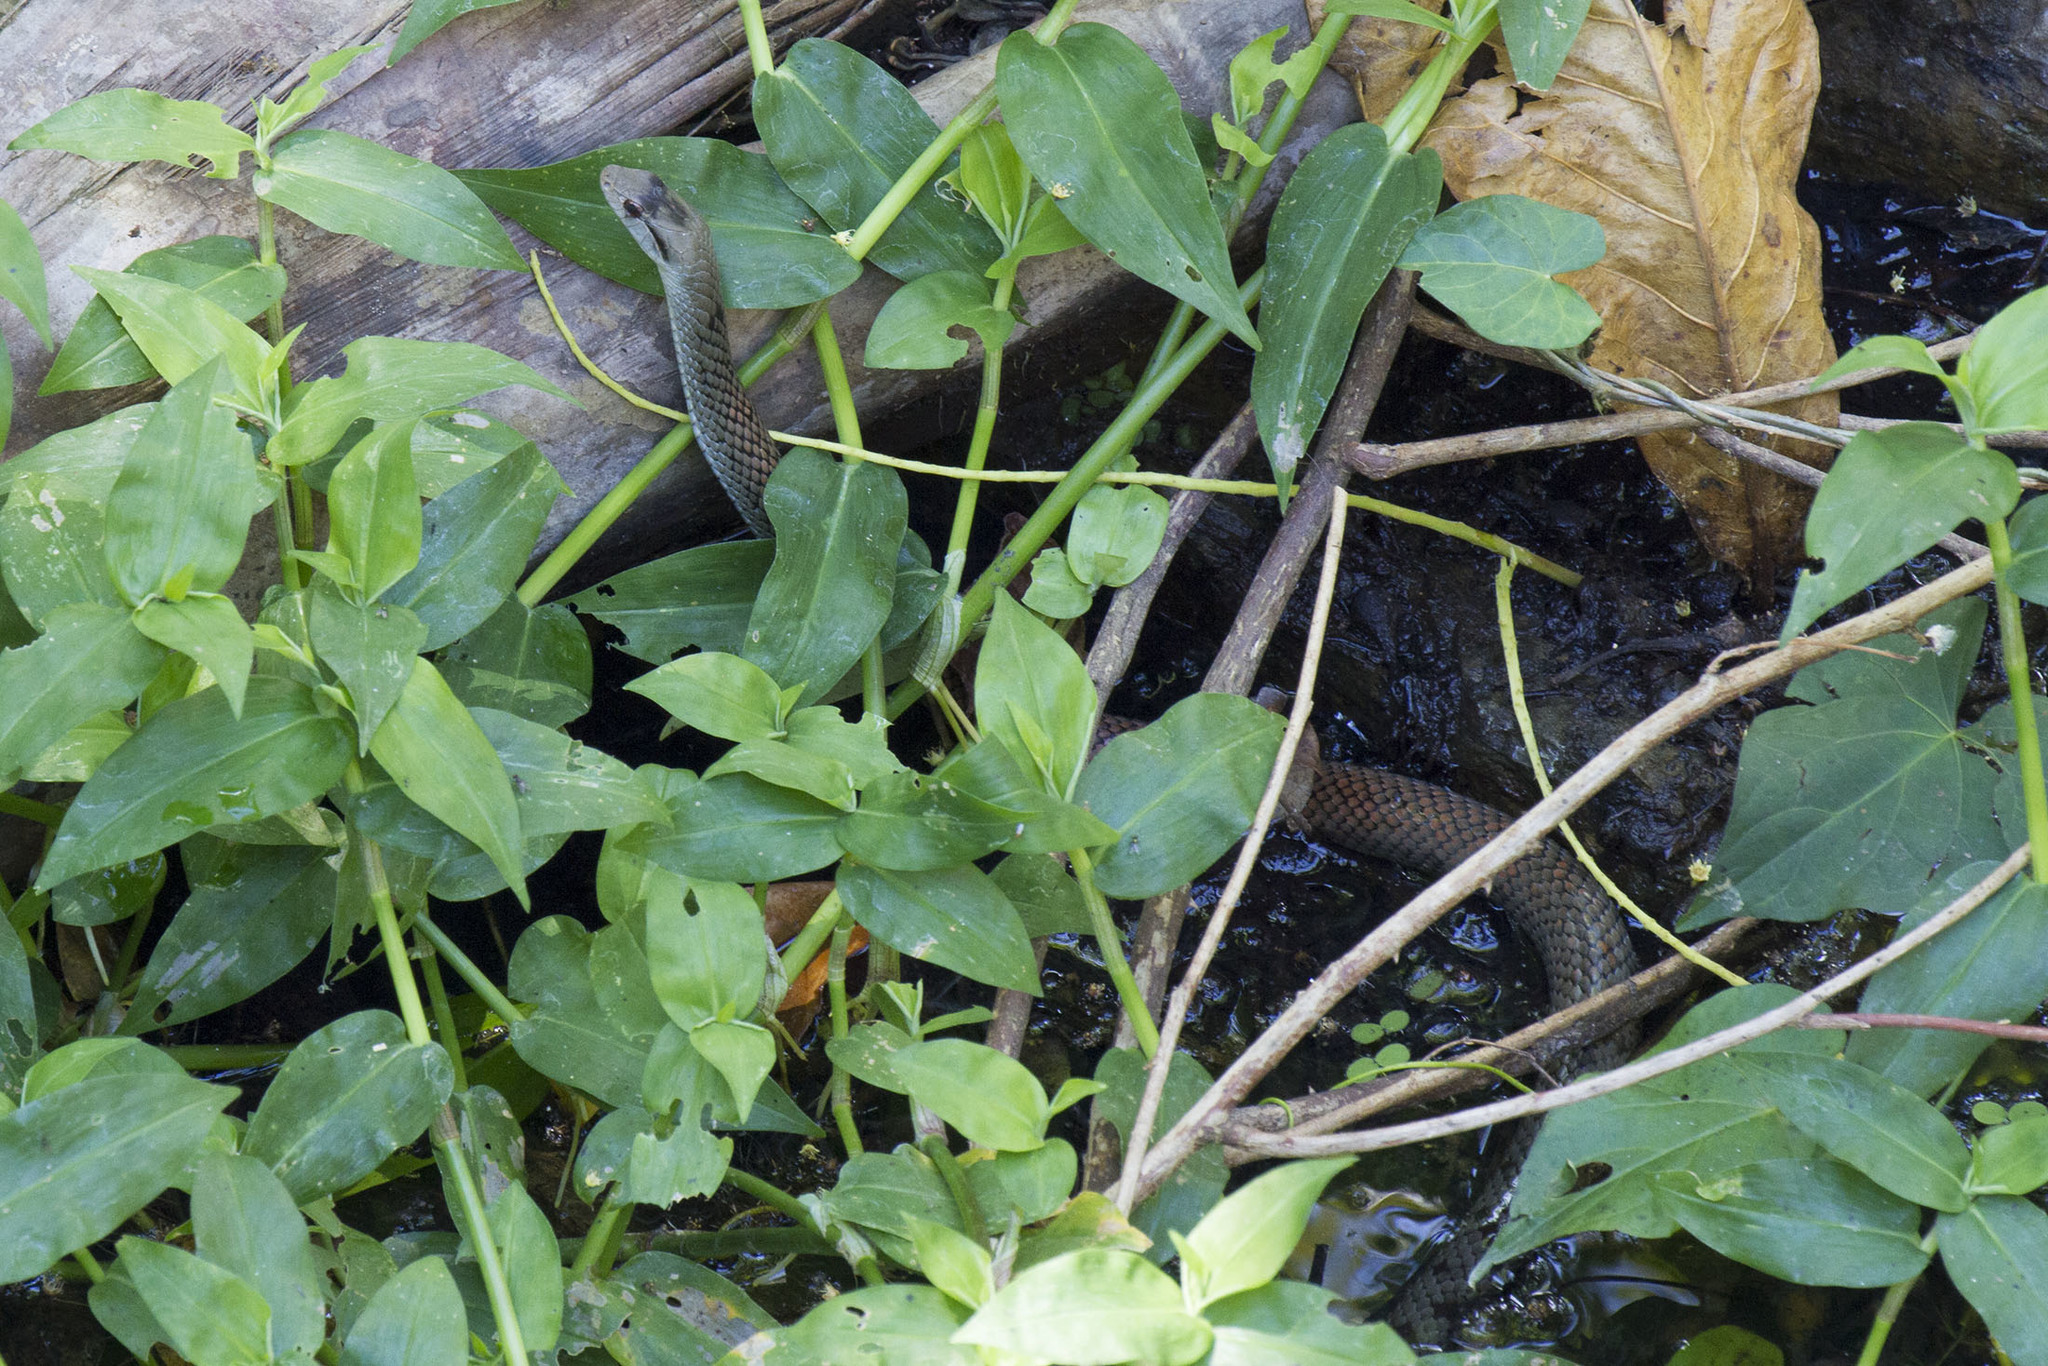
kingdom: Animalia
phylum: Chordata
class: Squamata
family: Colubridae
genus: Cubophis
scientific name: Cubophis cantherigerus
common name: Cuban racer
